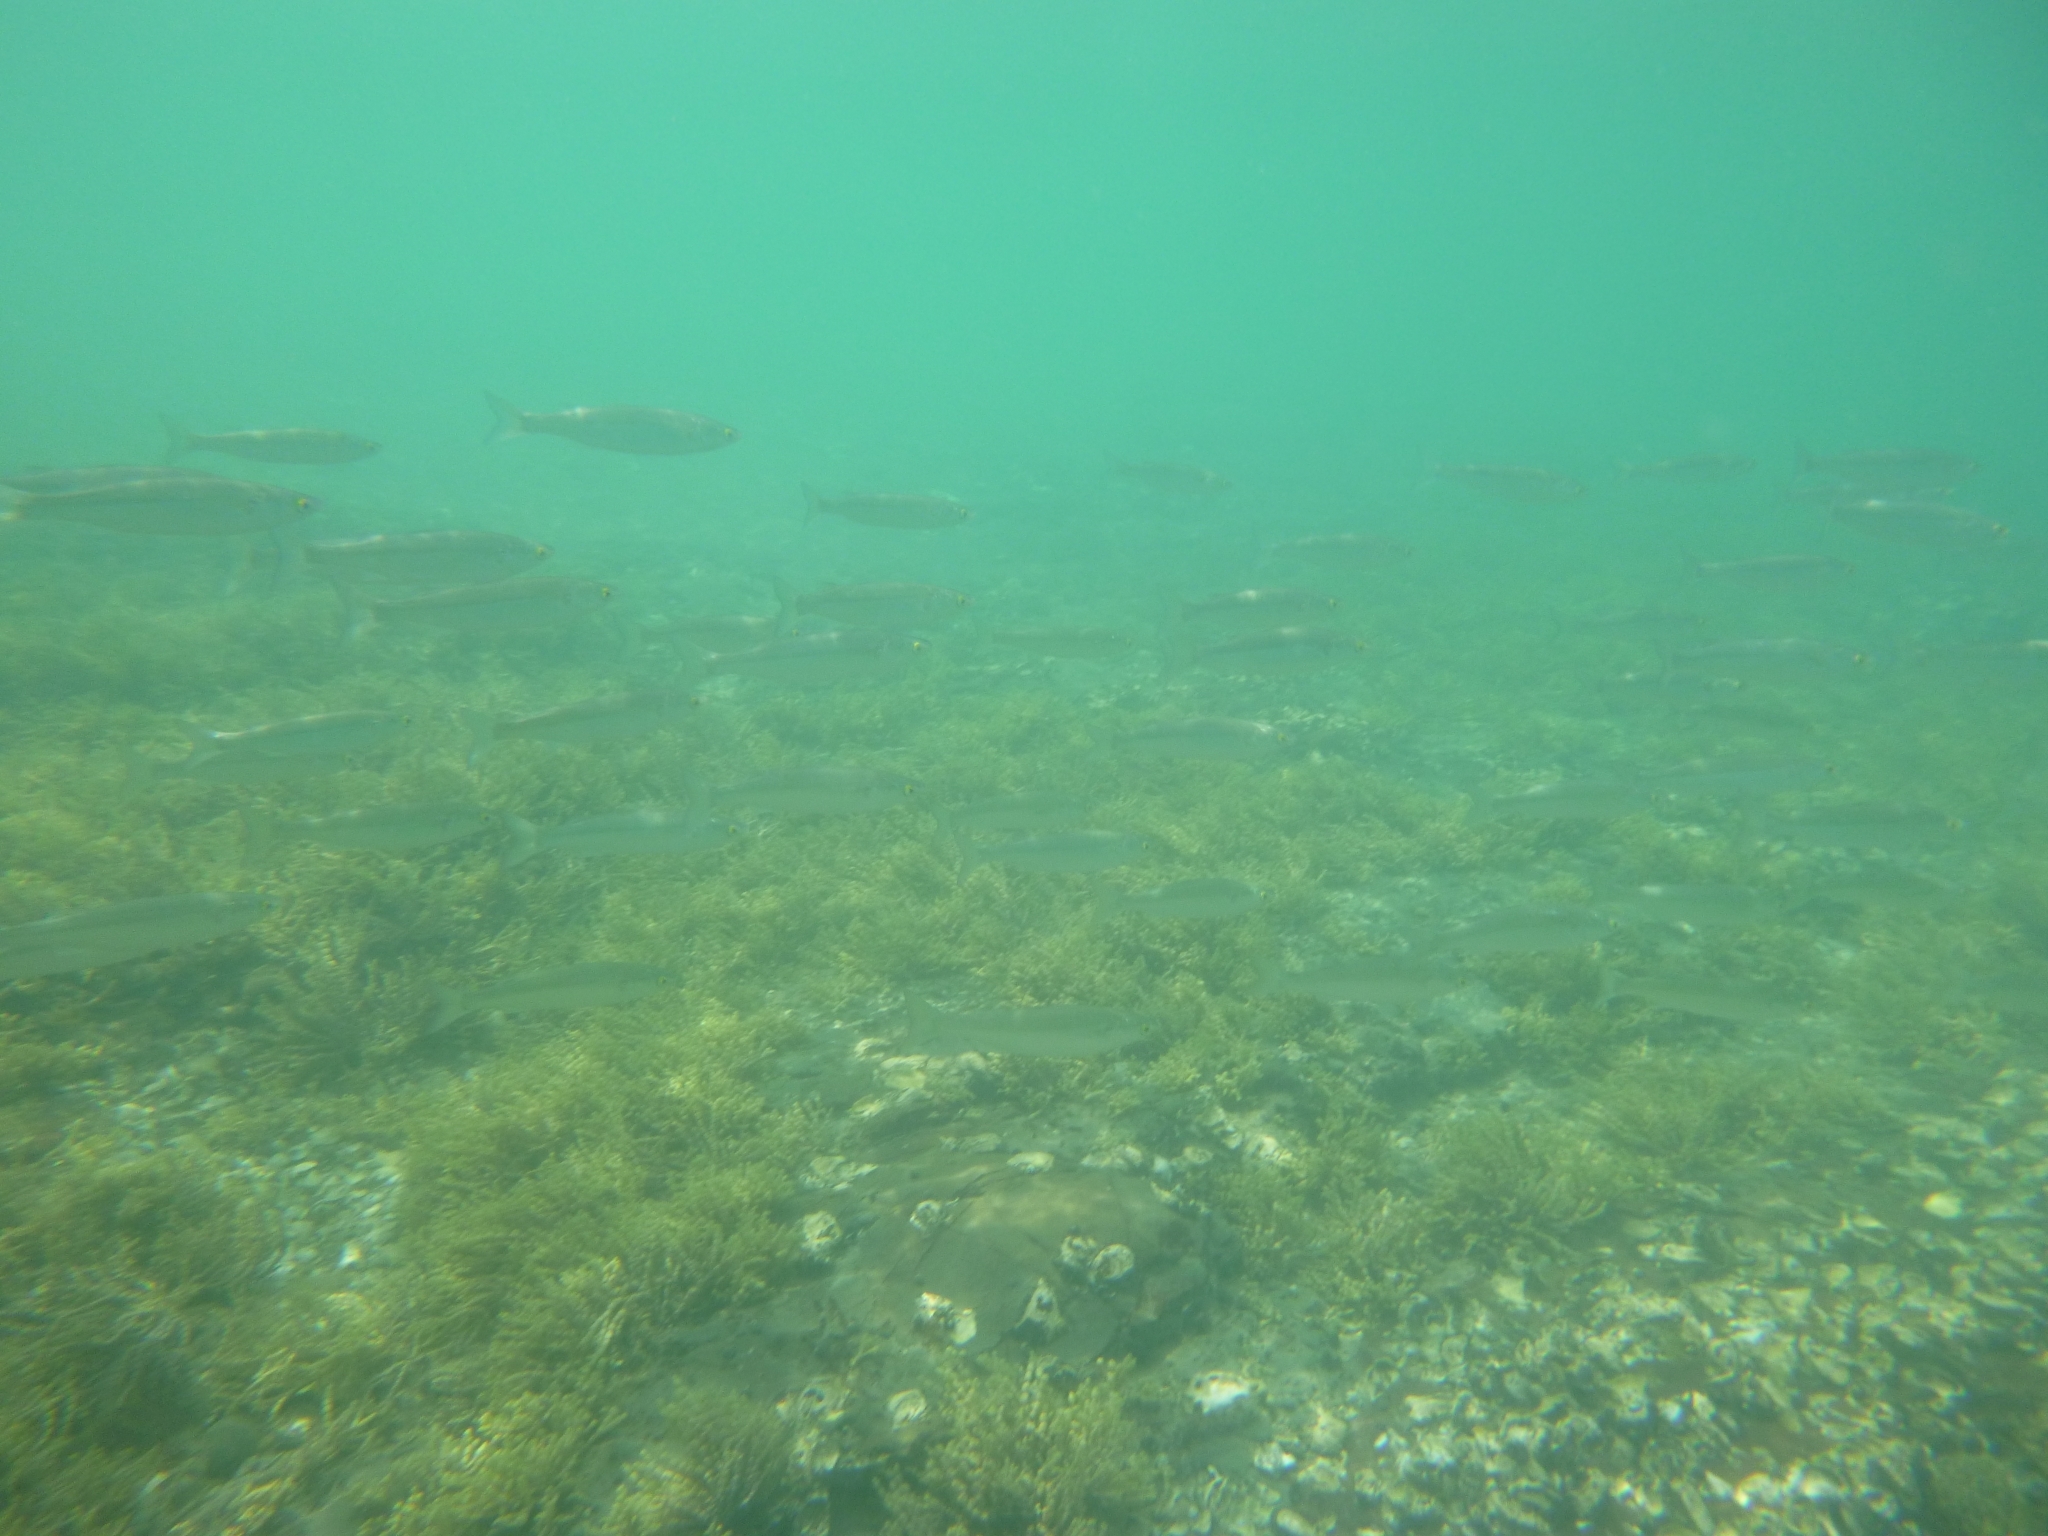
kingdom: Animalia
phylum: Chordata
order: Mugiliformes
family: Mugilidae
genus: Aldrichetta
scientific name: Aldrichetta forsteri
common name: Yellow-eye mullet
